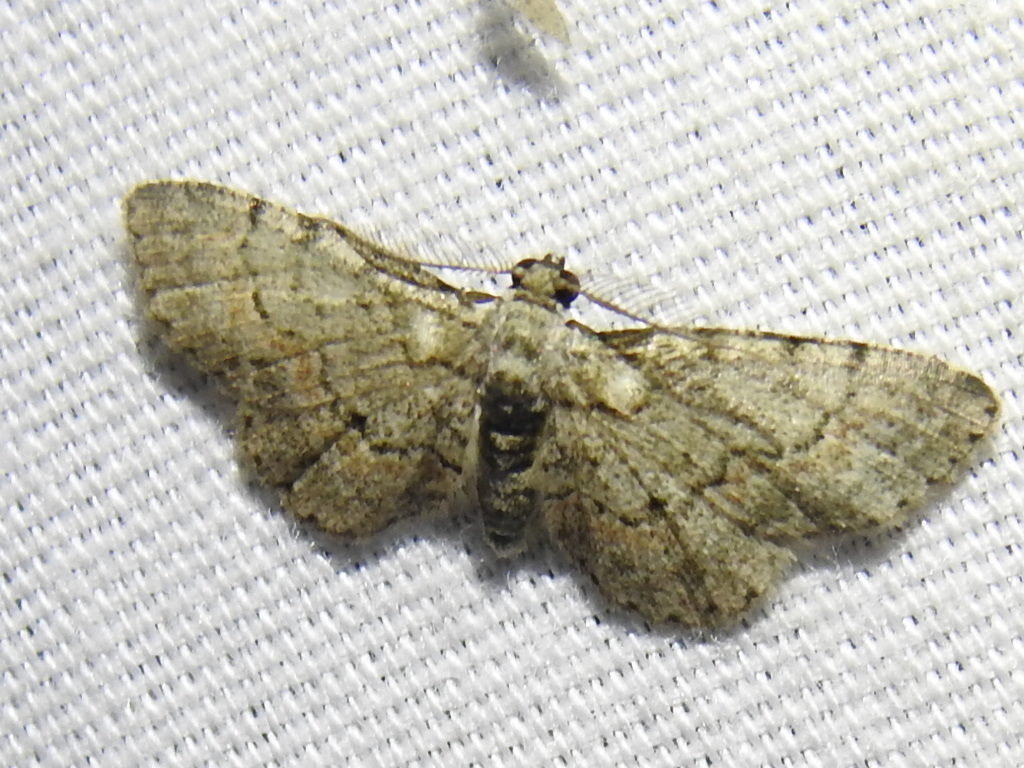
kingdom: Animalia
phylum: Arthropoda
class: Insecta
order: Lepidoptera
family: Geometridae
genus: Glenoides
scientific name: Glenoides texanaria
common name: Texas gray
